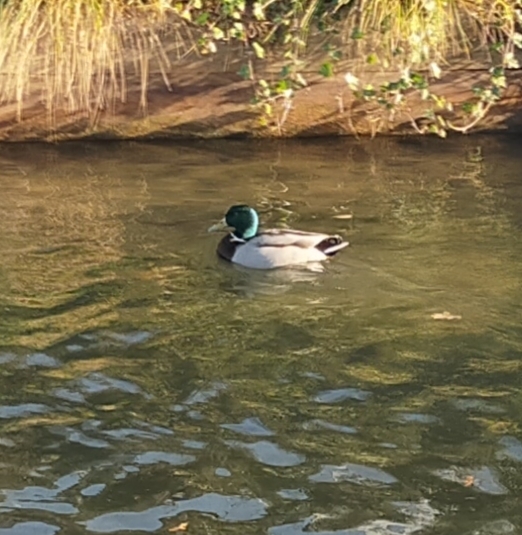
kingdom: Animalia
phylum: Chordata
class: Aves
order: Anseriformes
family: Anatidae
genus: Anas
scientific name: Anas platyrhynchos
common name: Mallard
